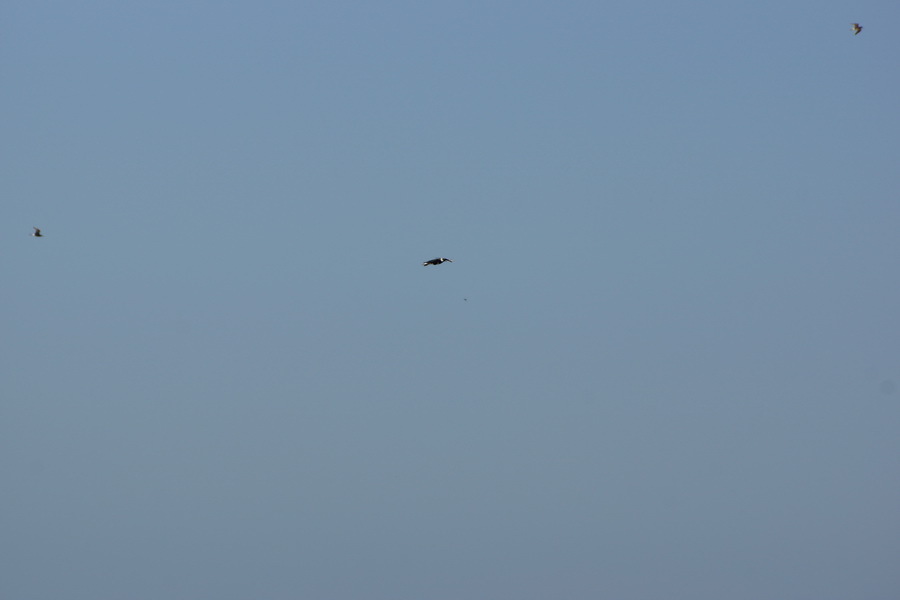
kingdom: Animalia
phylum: Chordata
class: Aves
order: Charadriiformes
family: Charadriidae
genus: Vanellus
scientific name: Vanellus vanellus
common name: Northern lapwing
